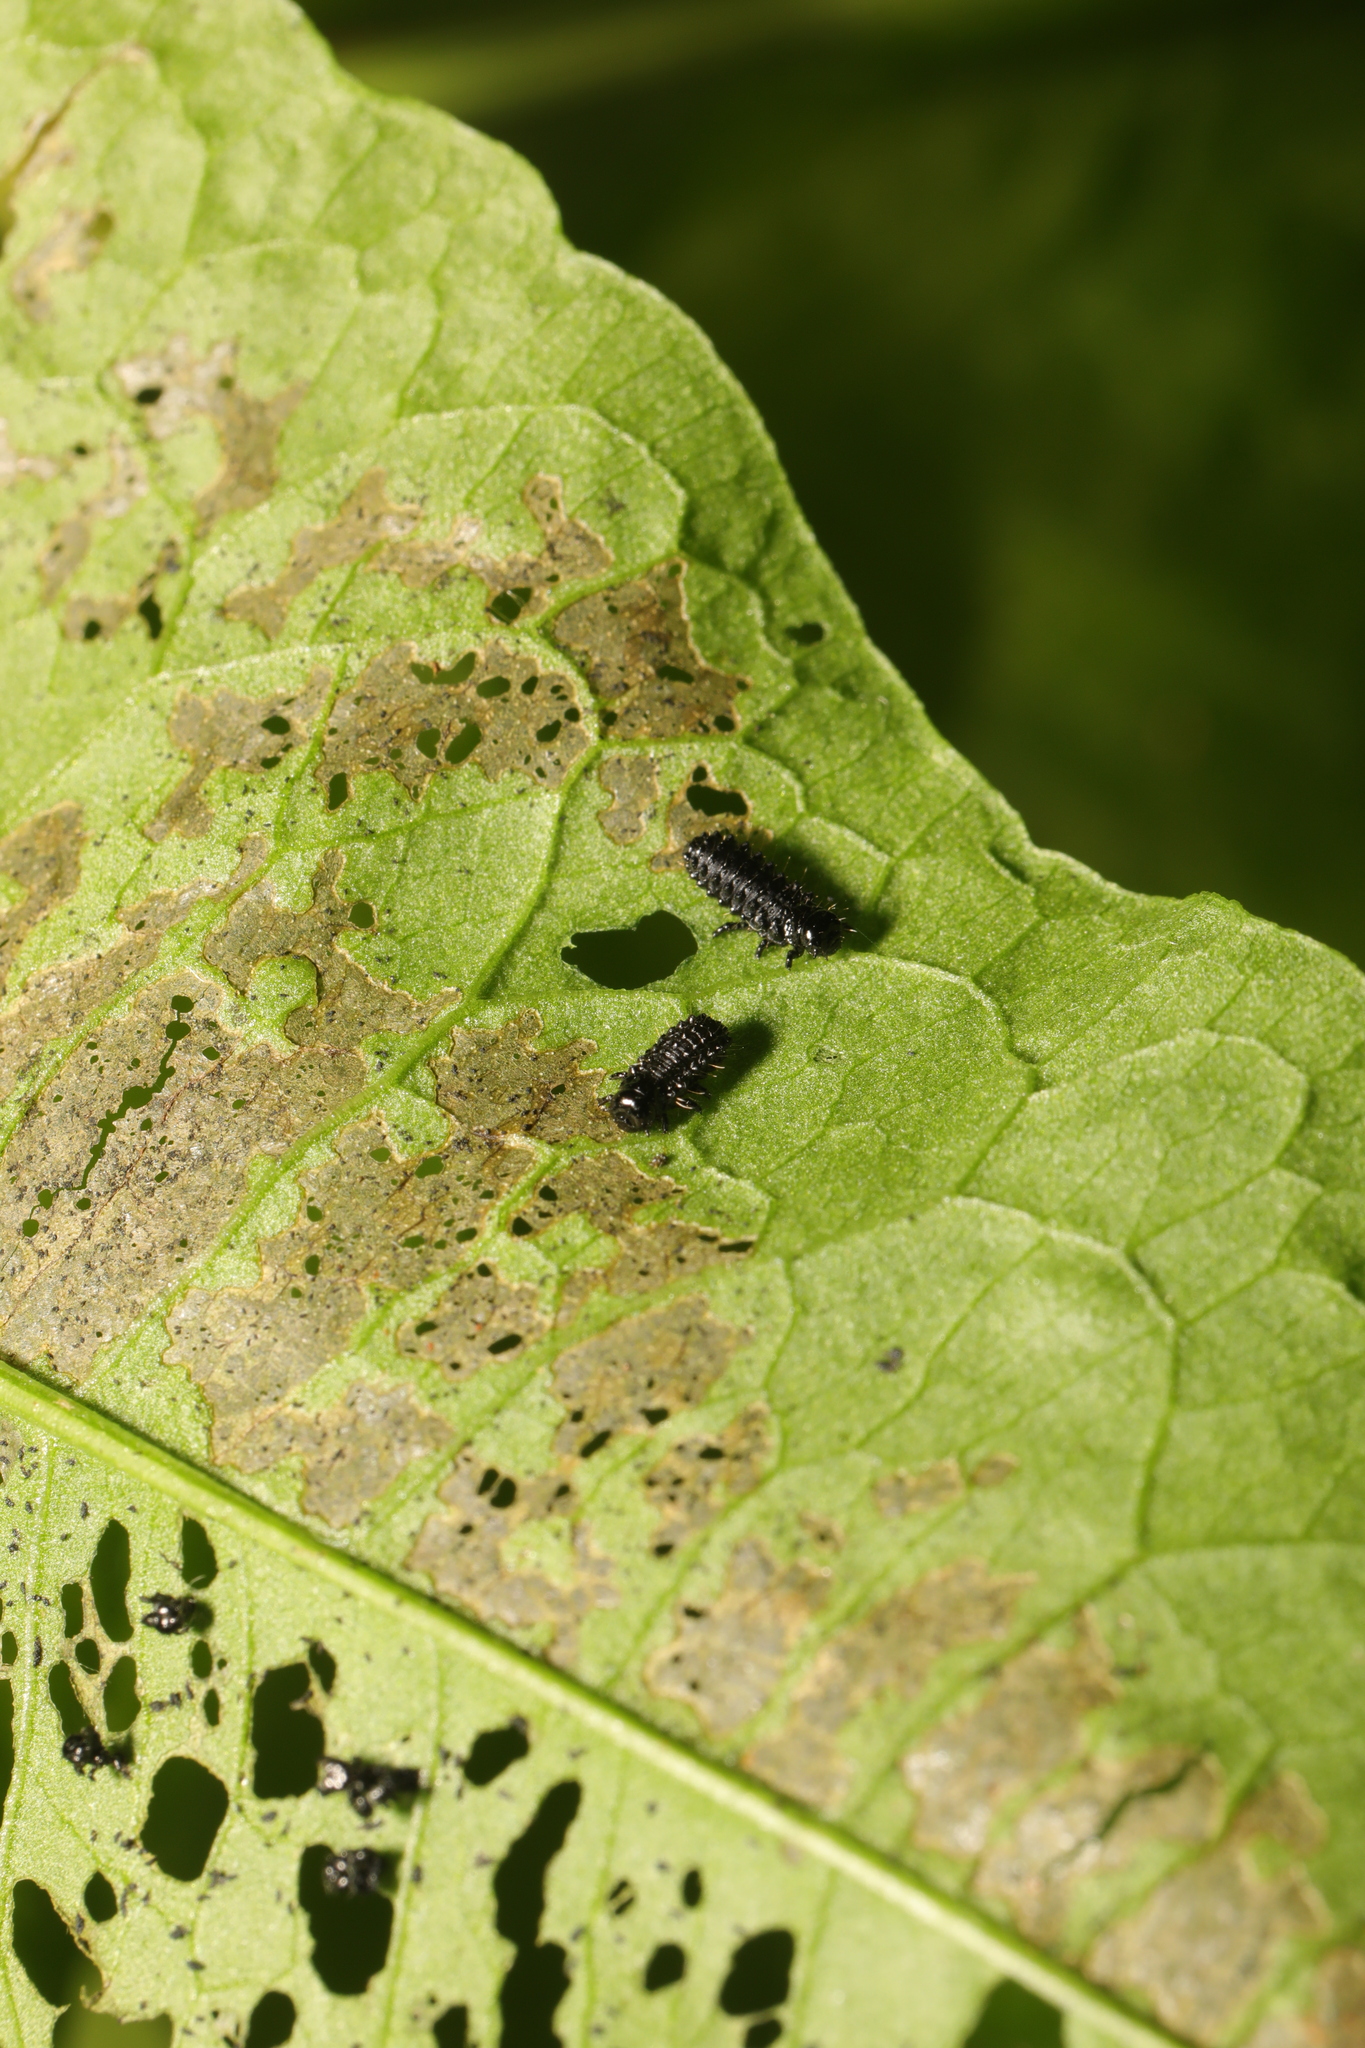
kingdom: Animalia
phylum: Arthropoda
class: Insecta
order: Coleoptera
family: Chrysomelidae
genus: Gastrophysa
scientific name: Gastrophysa viridula
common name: Green dock beetle
